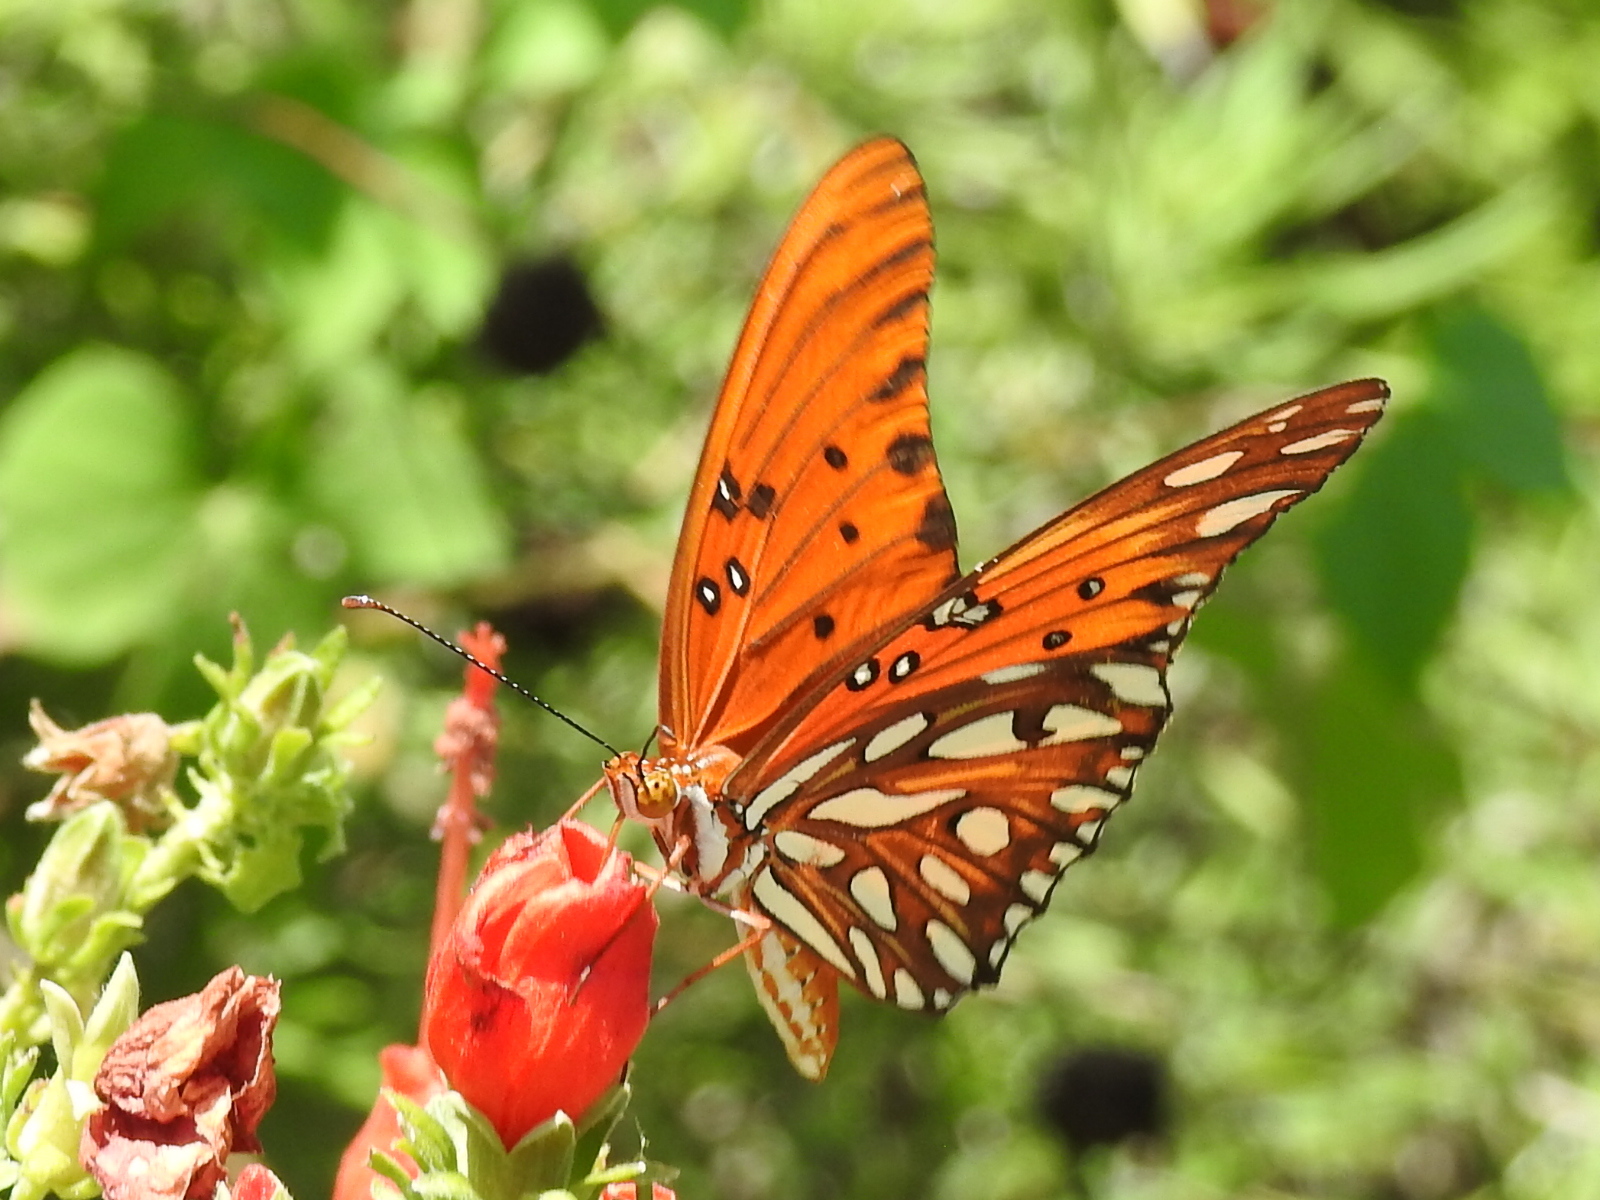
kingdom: Animalia
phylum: Arthropoda
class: Insecta
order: Lepidoptera
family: Nymphalidae
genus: Dione
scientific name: Dione vanillae
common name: Gulf fritillary
